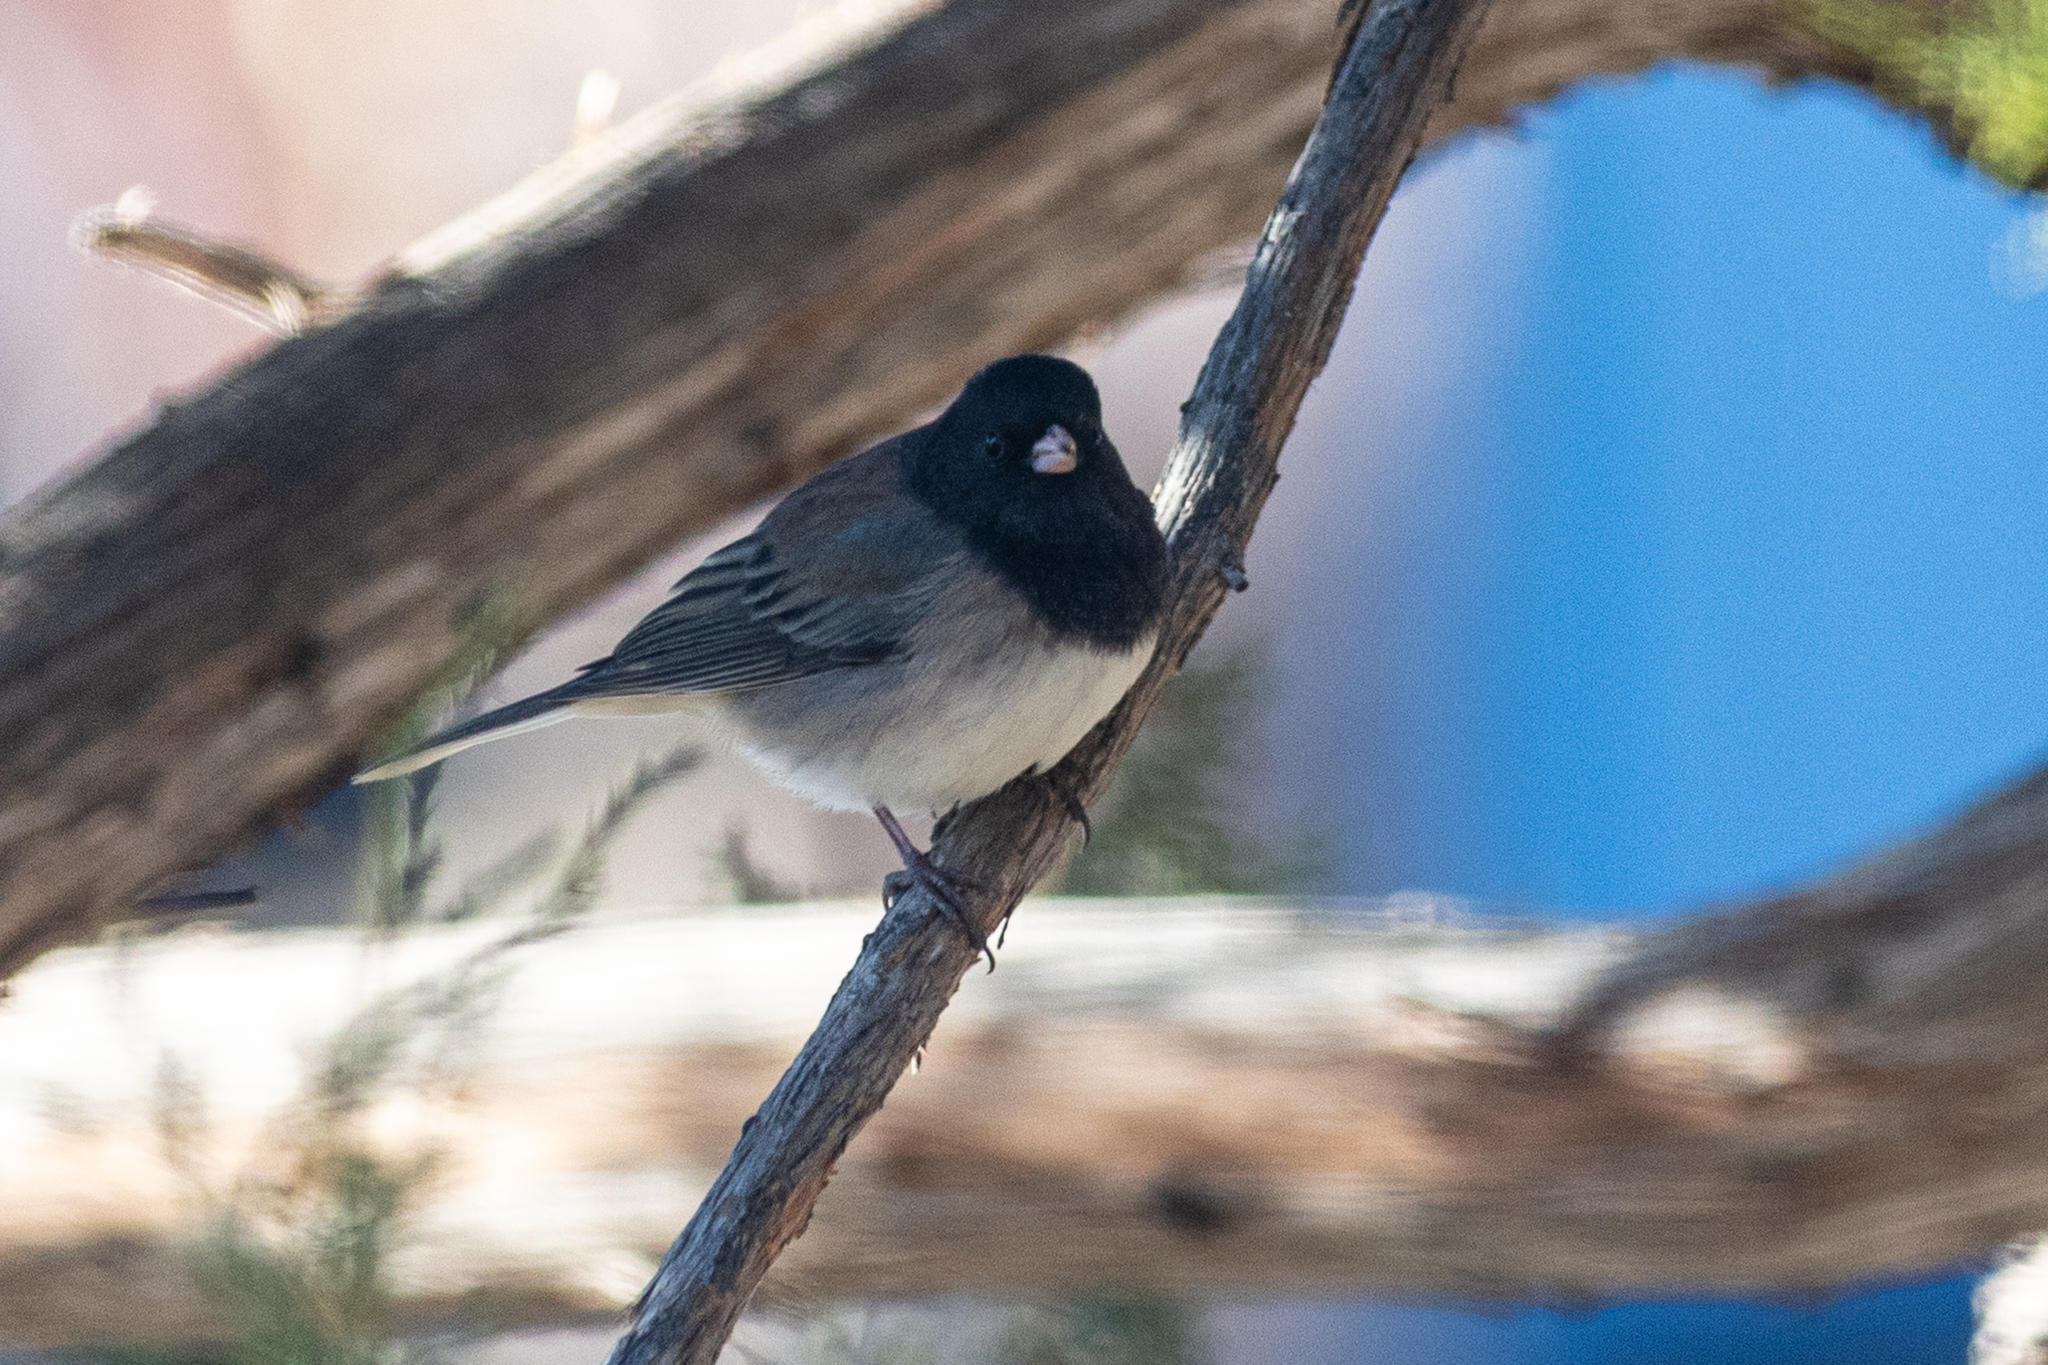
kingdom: Animalia
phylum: Chordata
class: Aves
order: Passeriformes
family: Passerellidae
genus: Junco
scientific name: Junco hyemalis
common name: Dark-eyed junco
